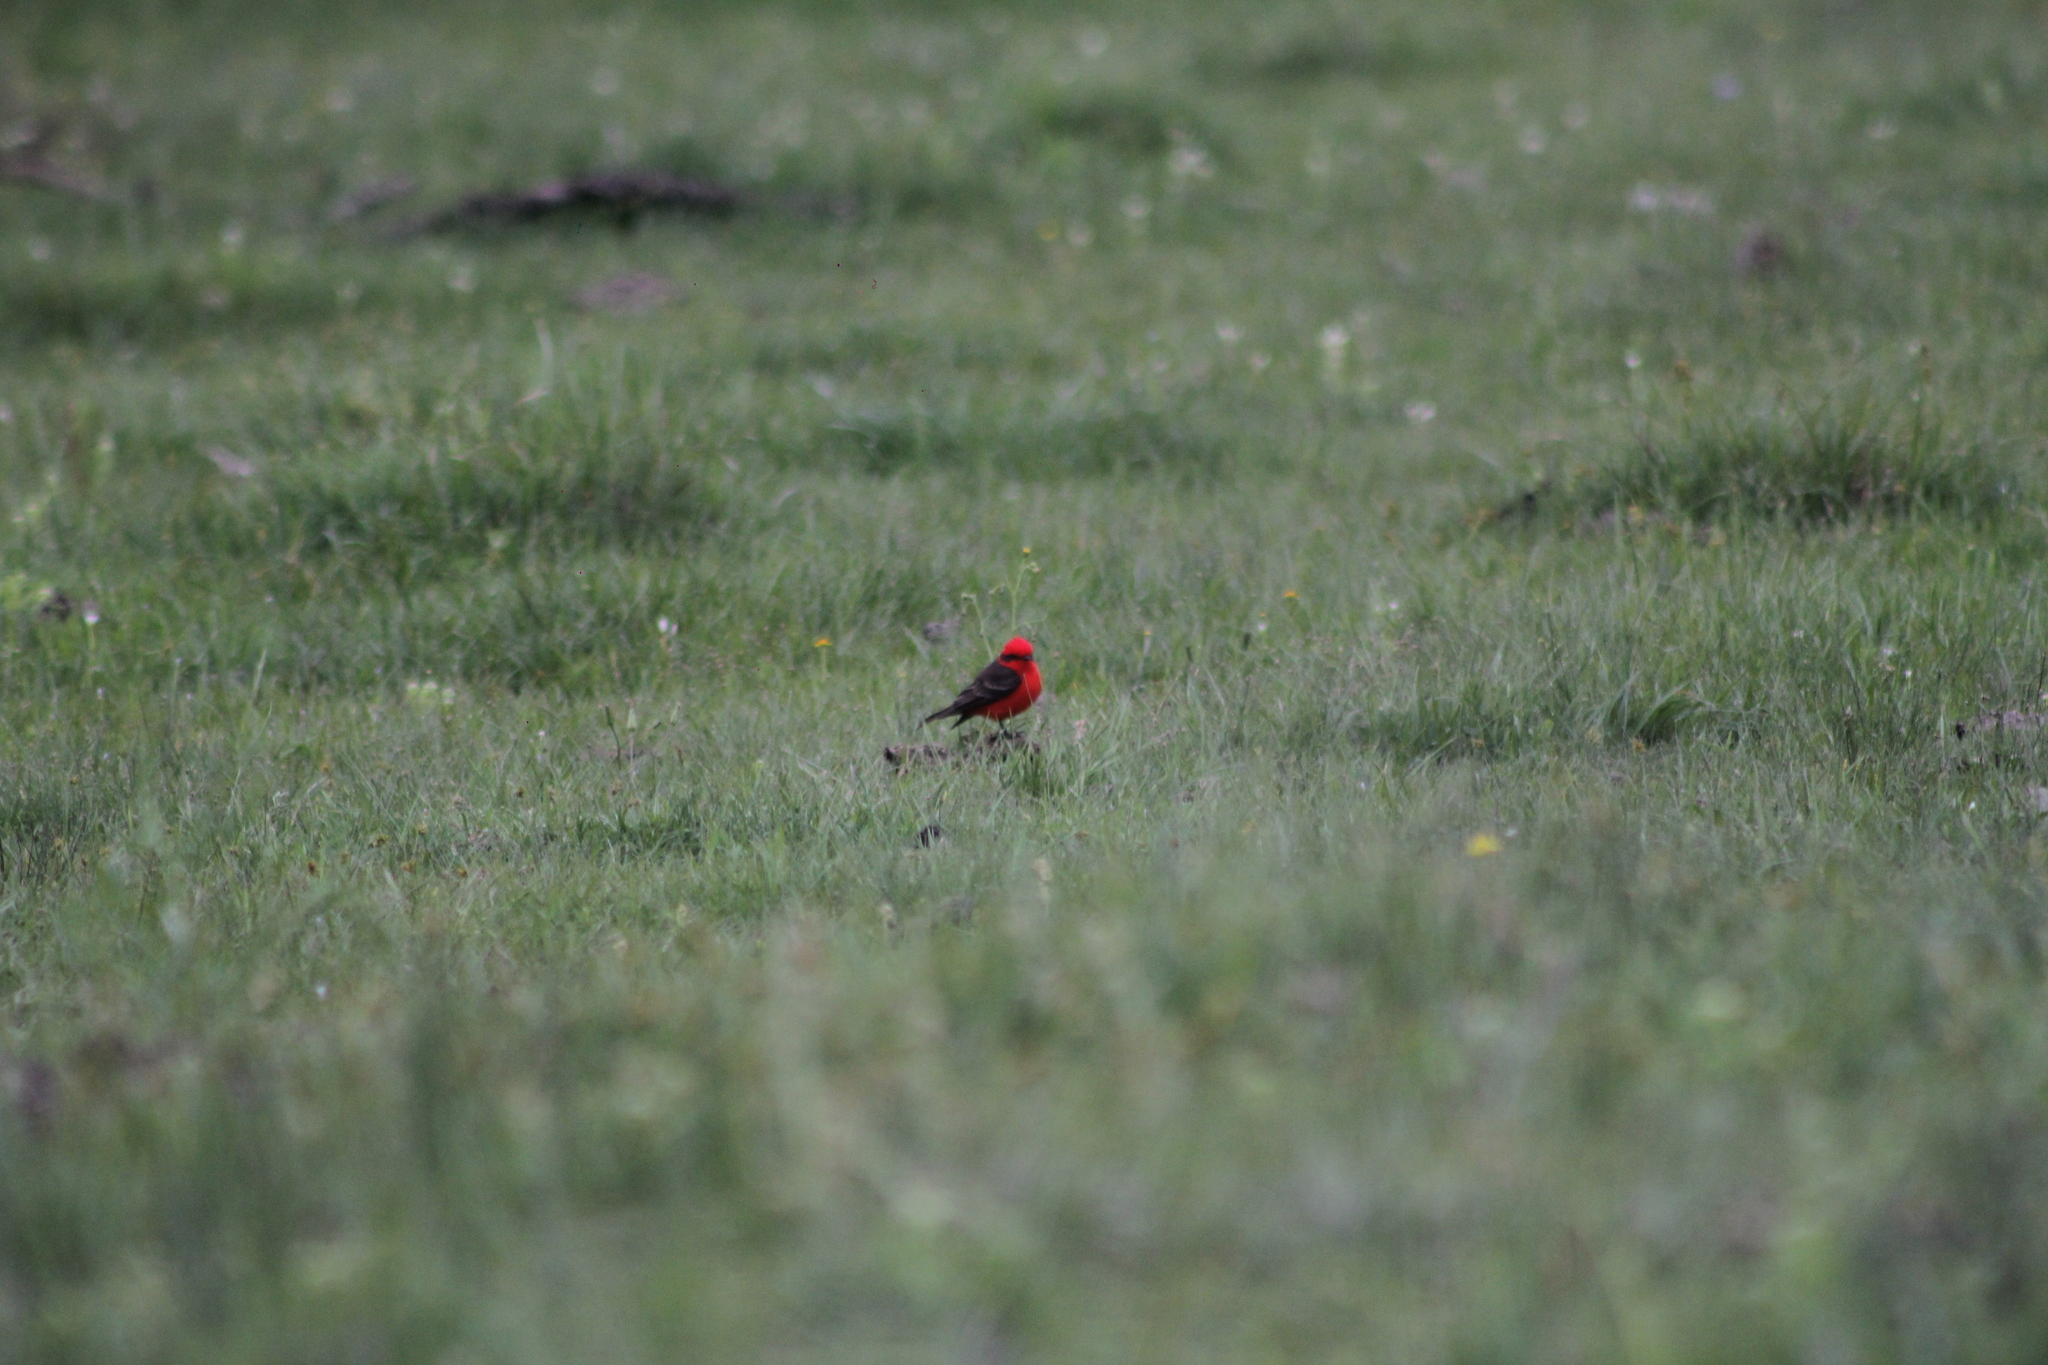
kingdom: Animalia
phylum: Chordata
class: Aves
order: Passeriformes
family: Tyrannidae
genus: Pyrocephalus
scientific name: Pyrocephalus rubinus
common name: Vermilion flycatcher
